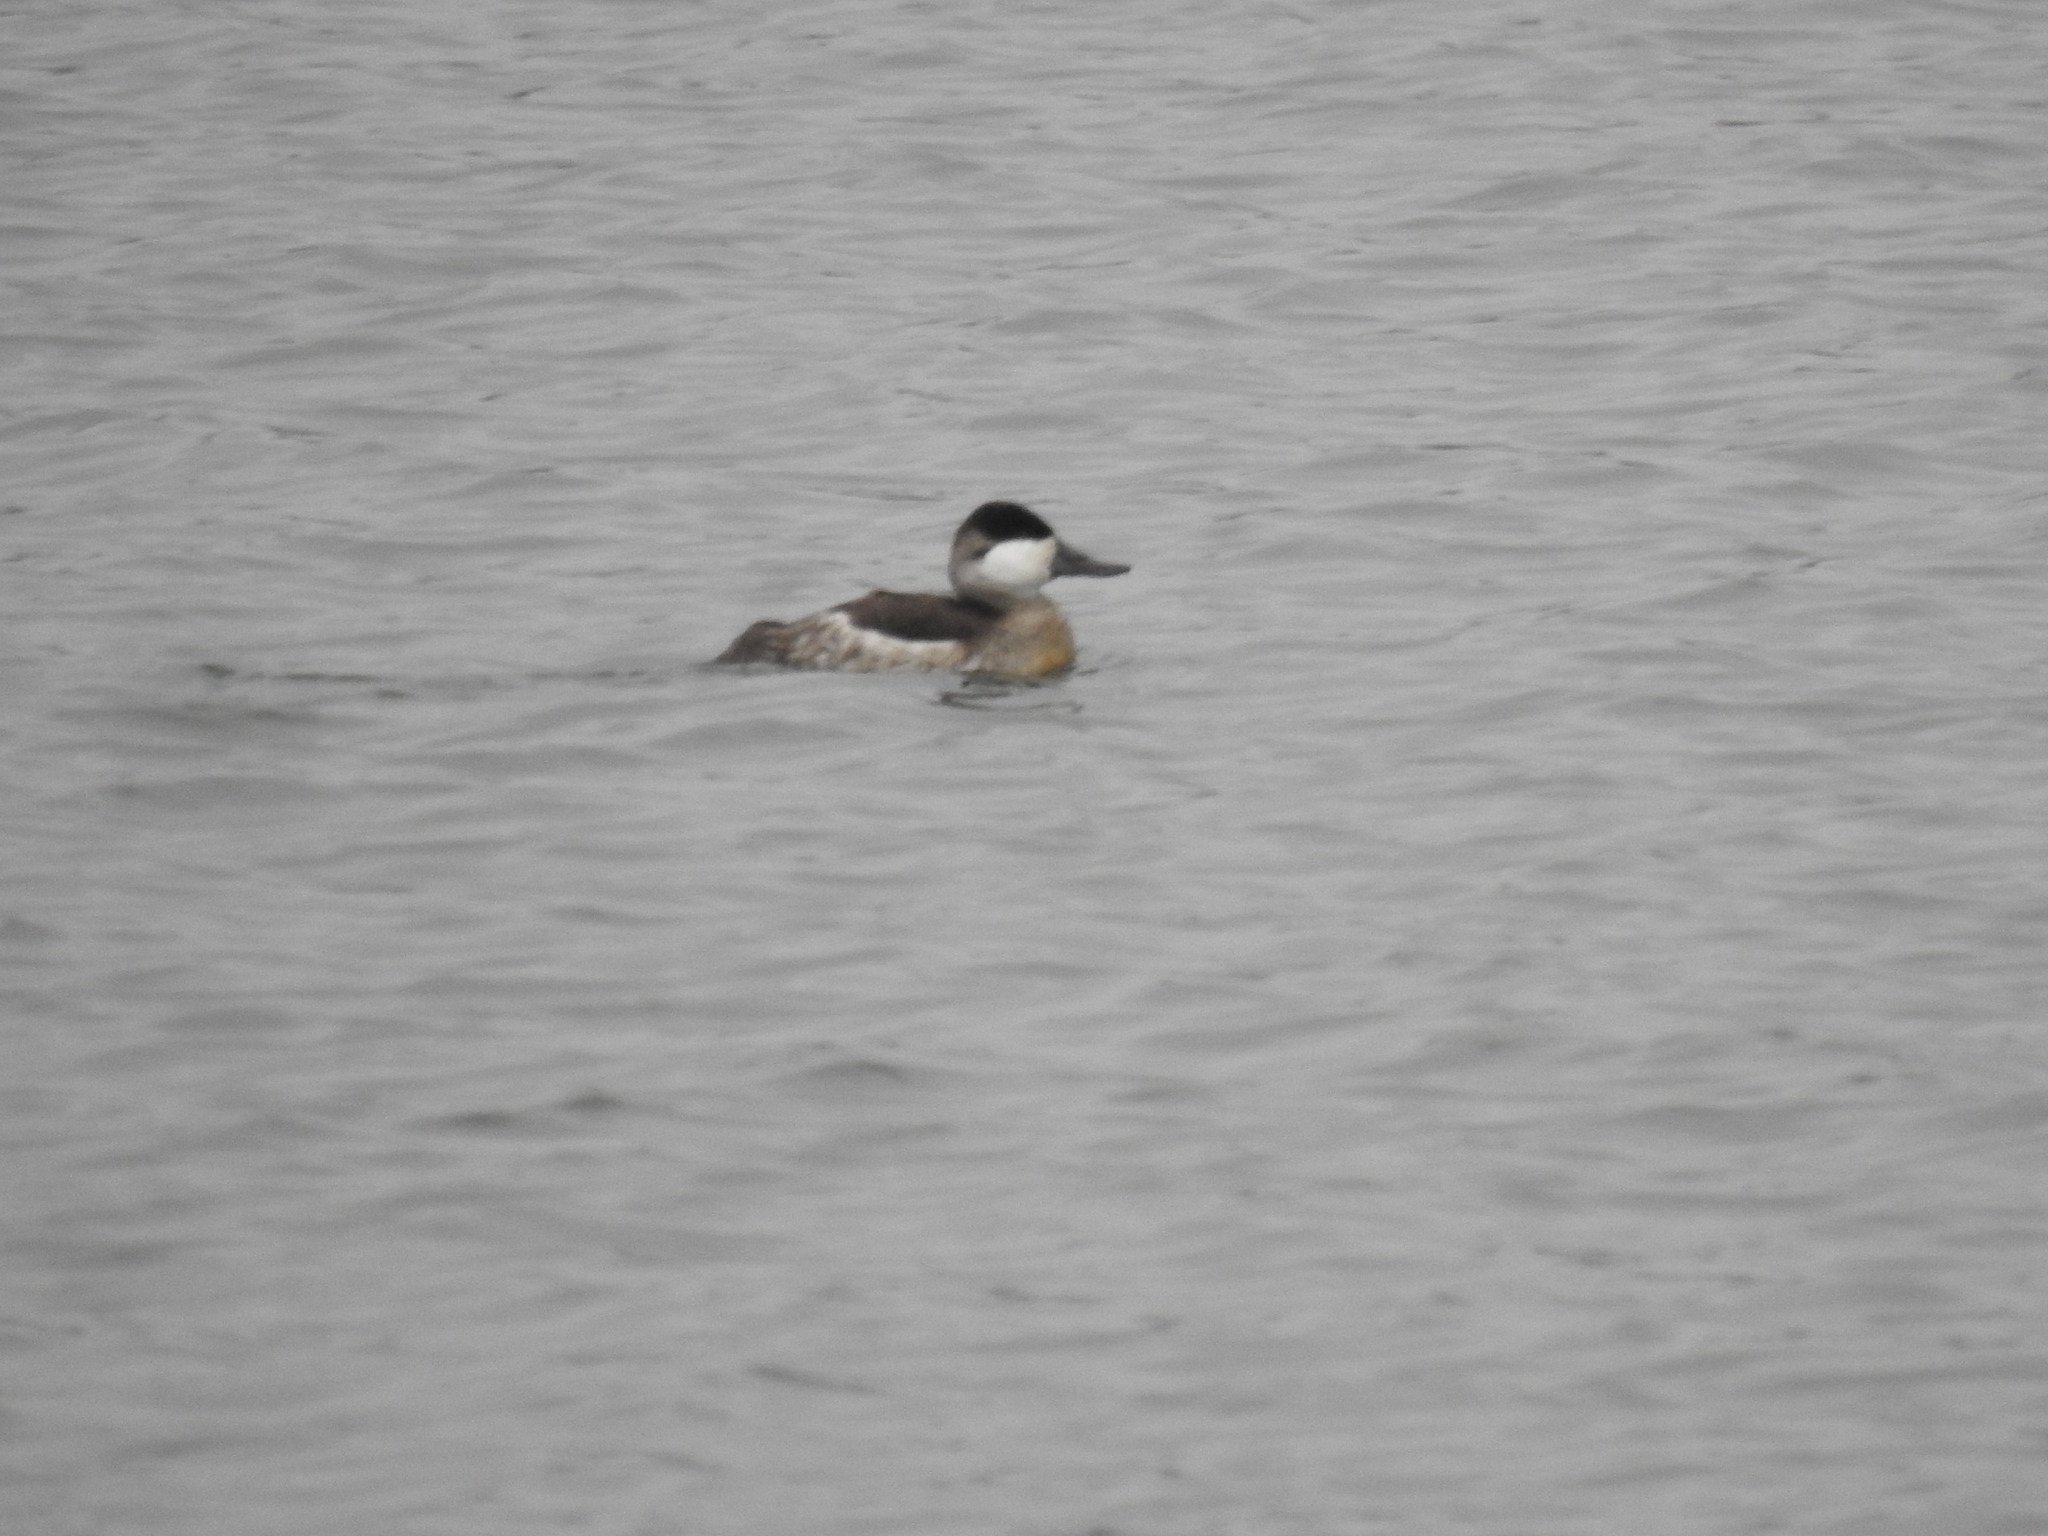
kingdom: Animalia
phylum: Chordata
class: Aves
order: Anseriformes
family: Anatidae
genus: Oxyura
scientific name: Oxyura jamaicensis
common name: Ruddy duck
